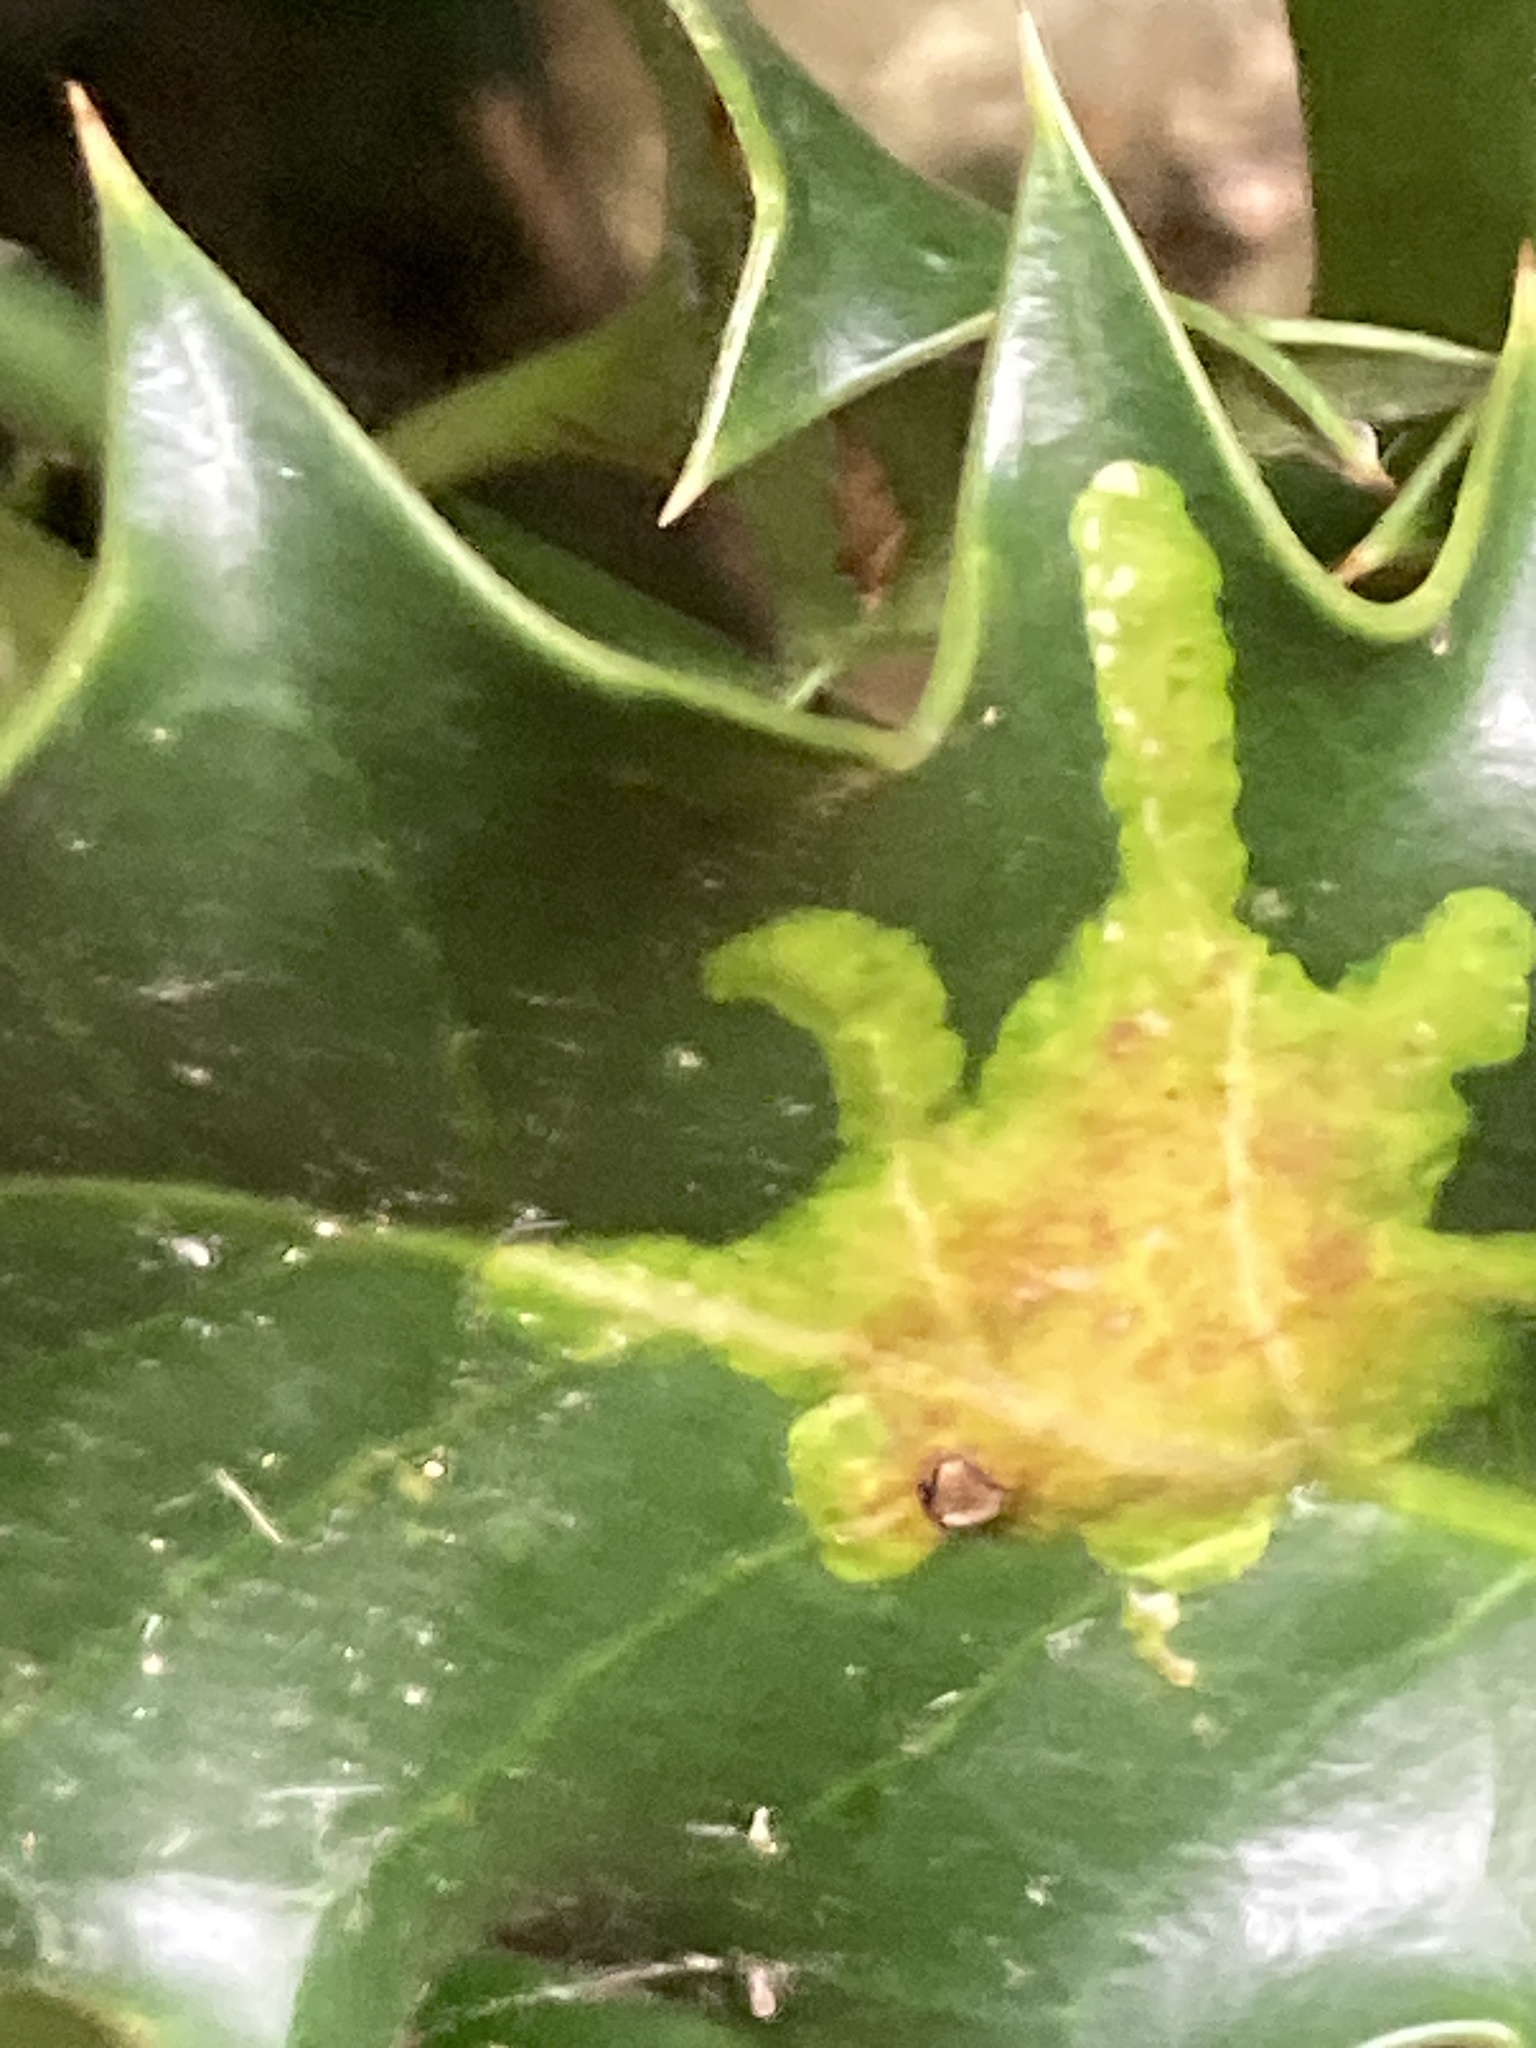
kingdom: Animalia
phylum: Arthropoda
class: Insecta
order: Diptera
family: Agromyzidae
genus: Phytomyza
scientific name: Phytomyza ilicis
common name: Holly leafminer
